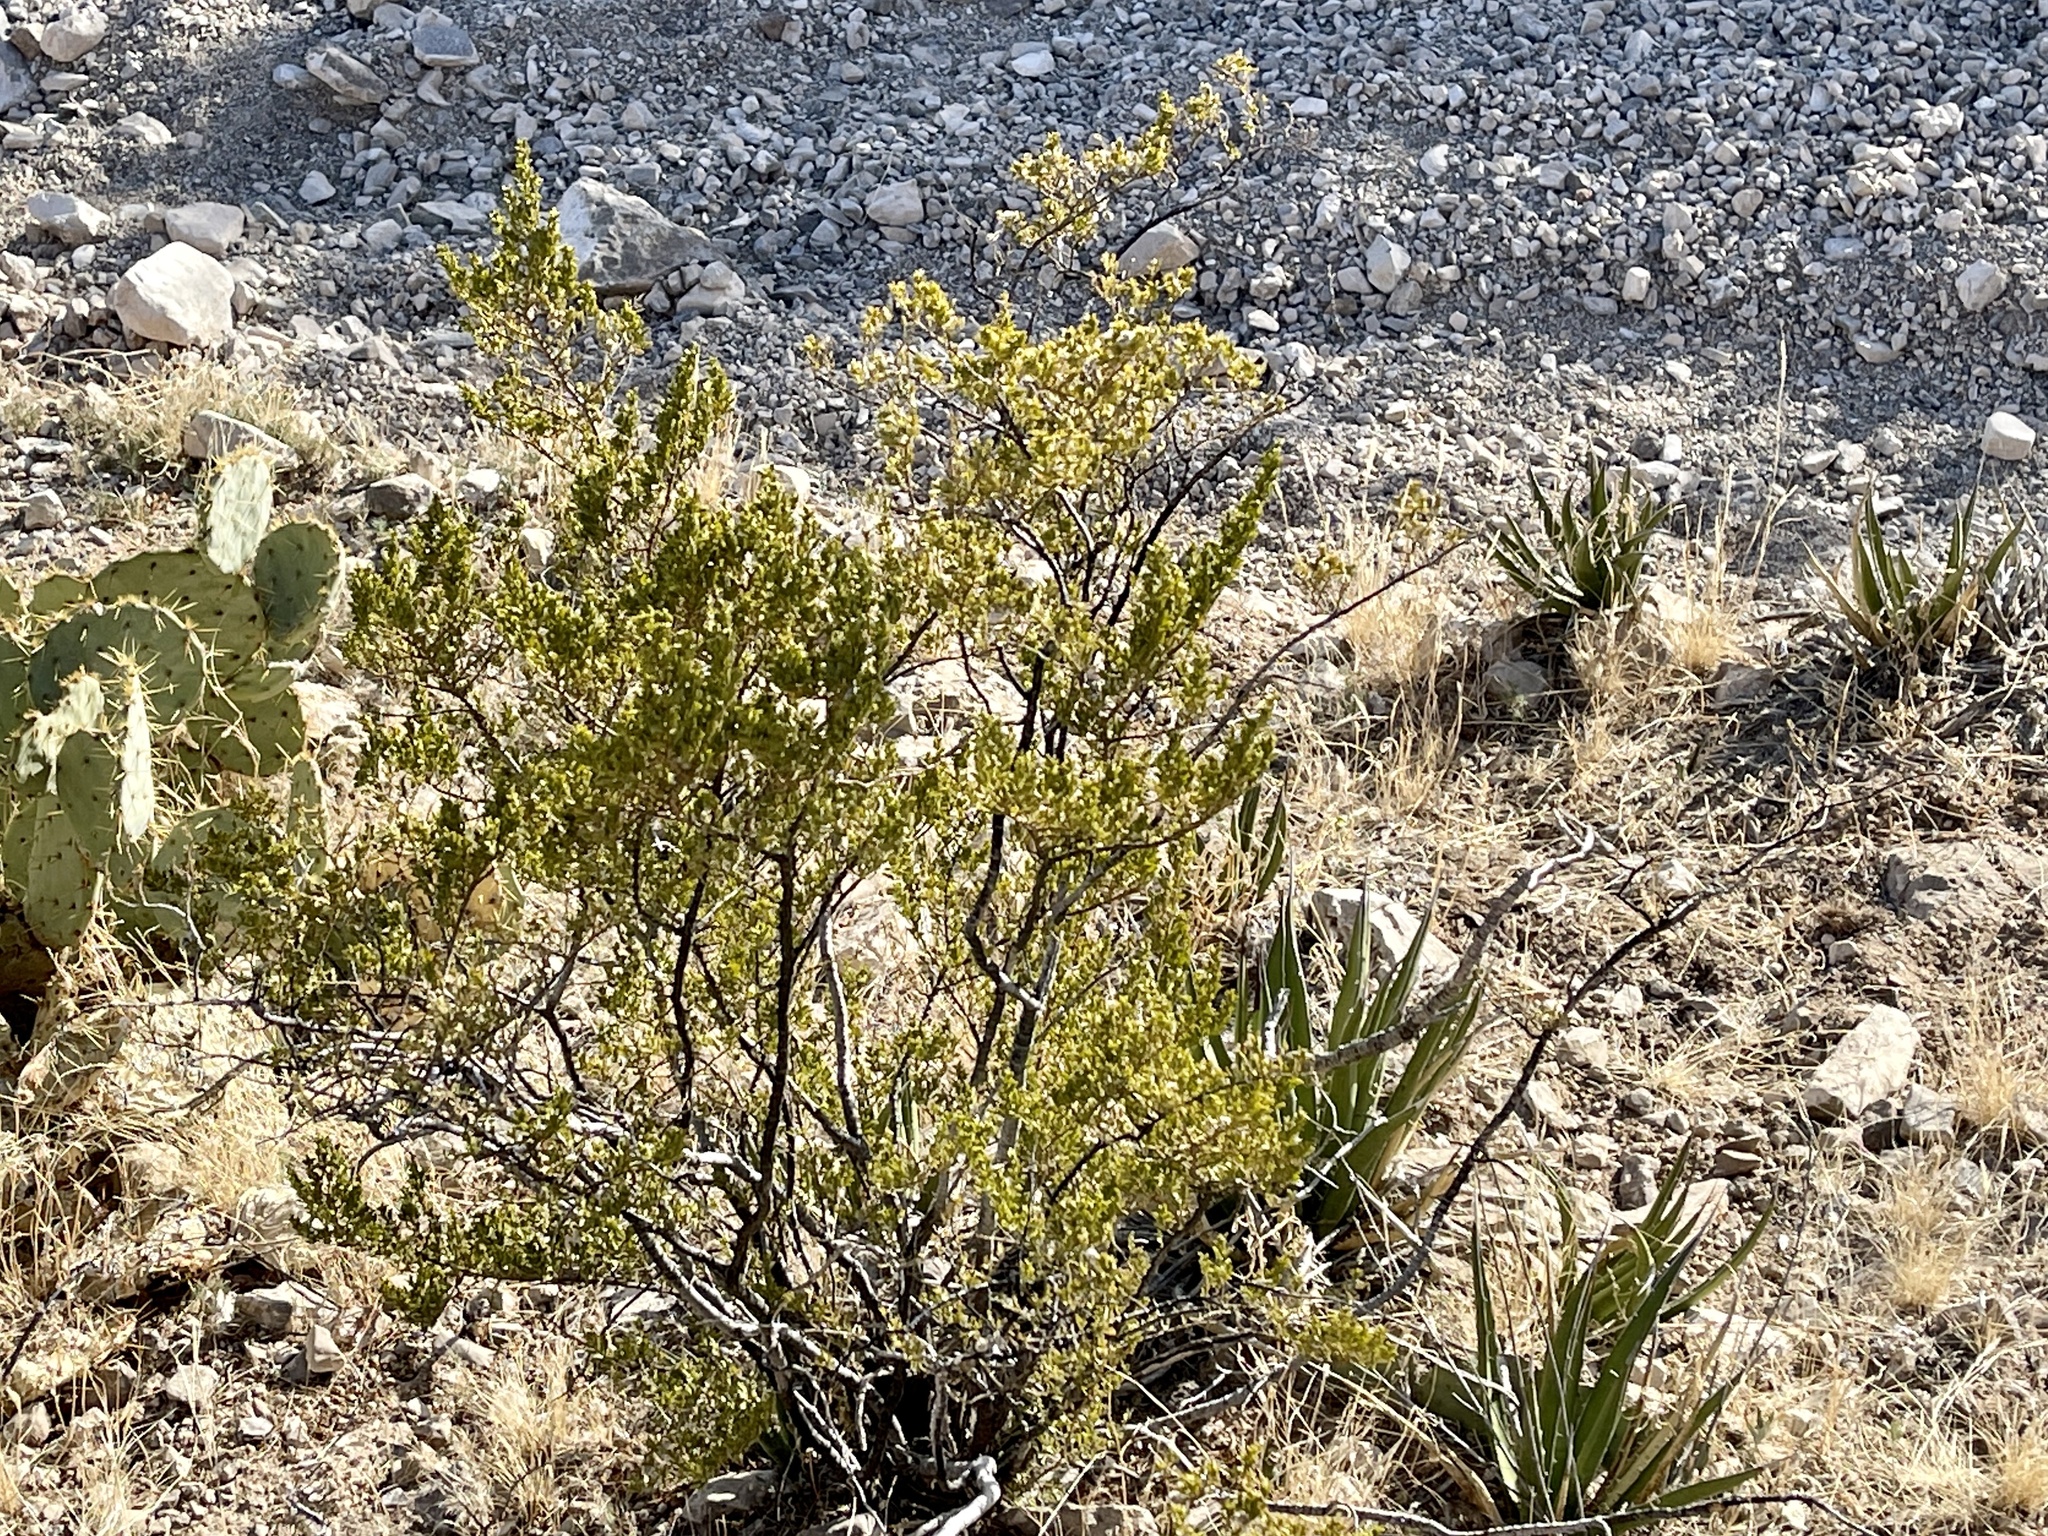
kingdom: Plantae
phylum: Tracheophyta
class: Magnoliopsida
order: Zygophyllales
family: Zygophyllaceae
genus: Larrea
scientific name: Larrea tridentata
